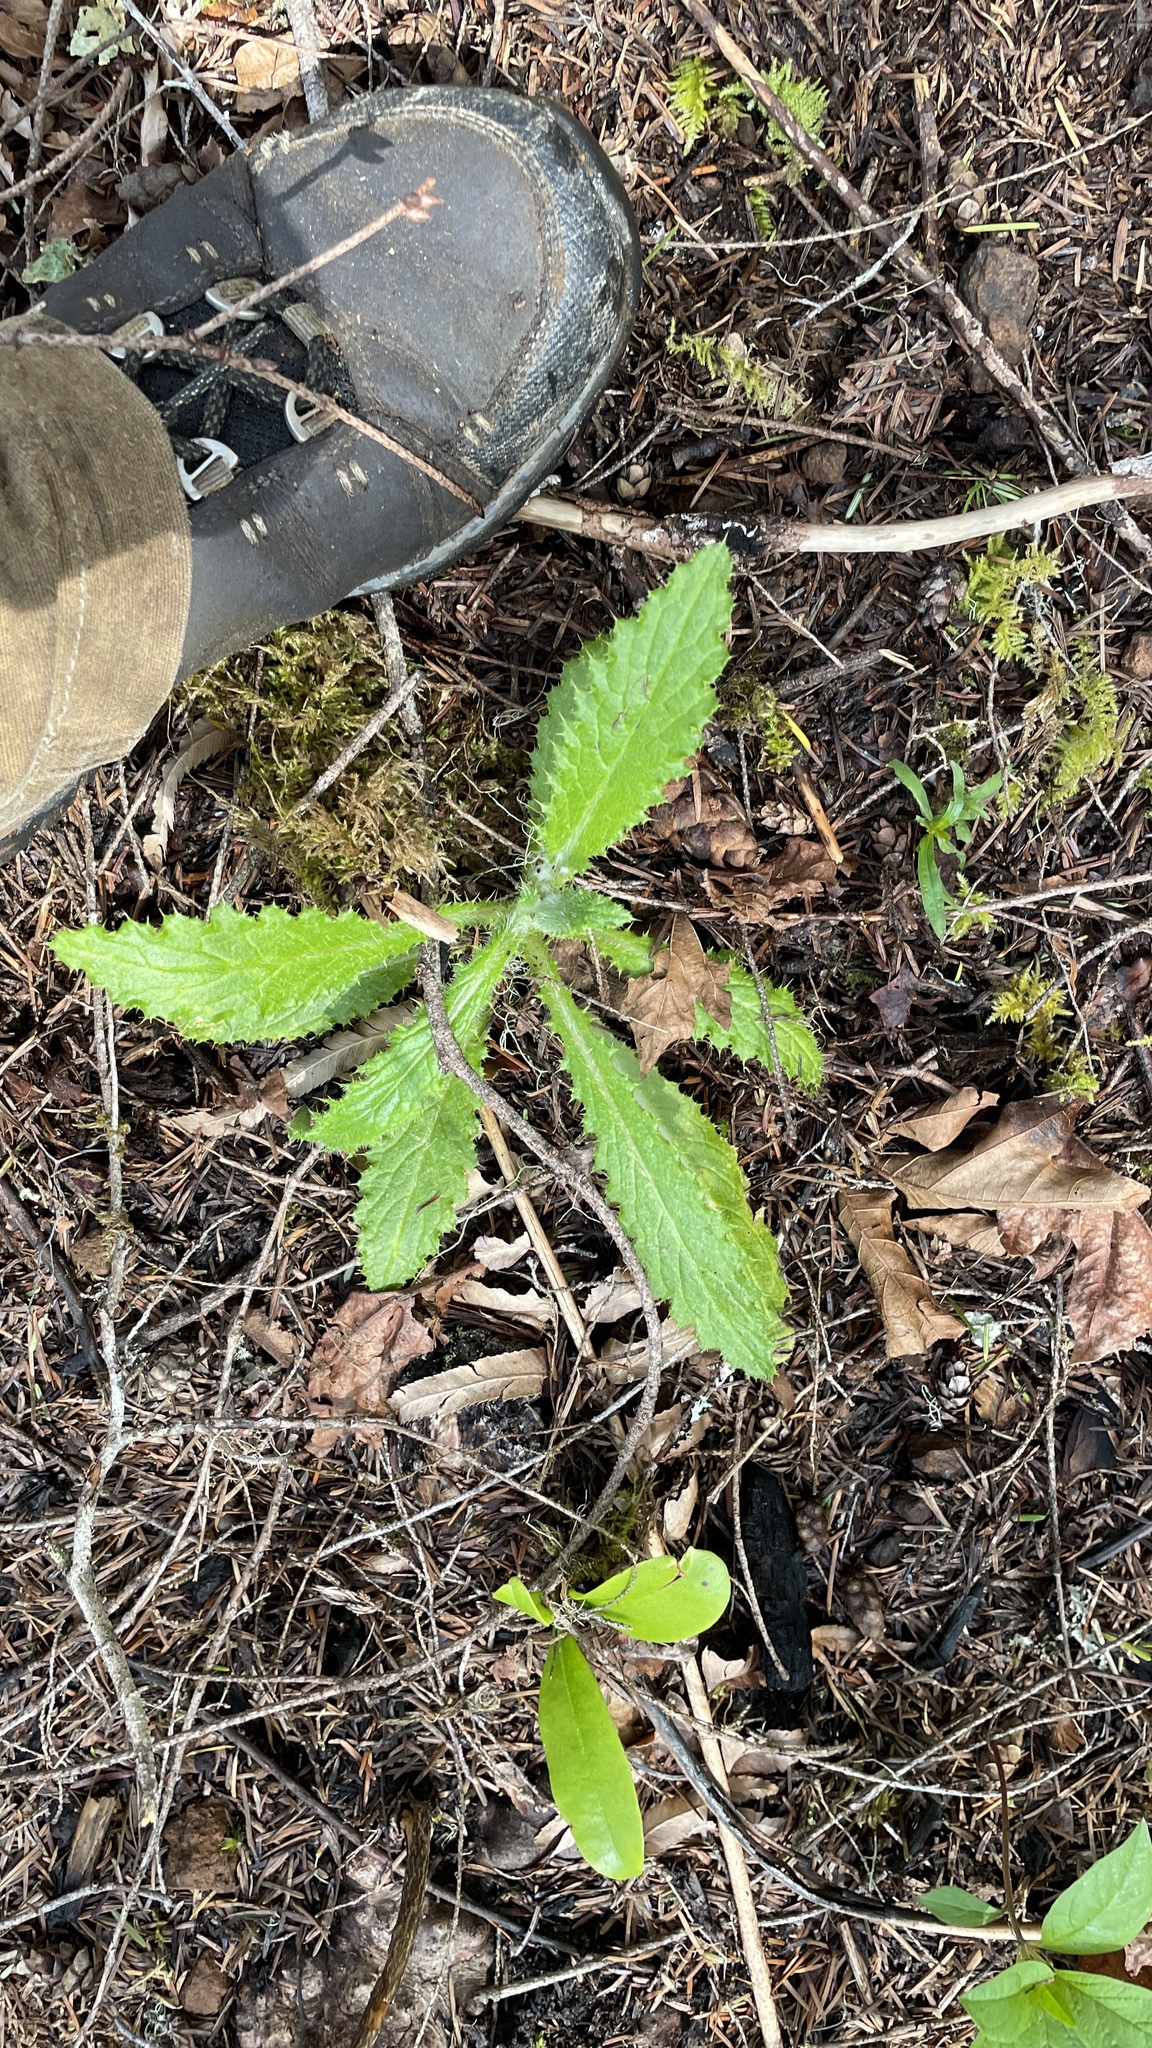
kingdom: Plantae
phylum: Tracheophyta
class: Magnoliopsida
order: Asterales
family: Asteraceae
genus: Cirsium
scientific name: Cirsium brevistylum
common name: Indian thistle
